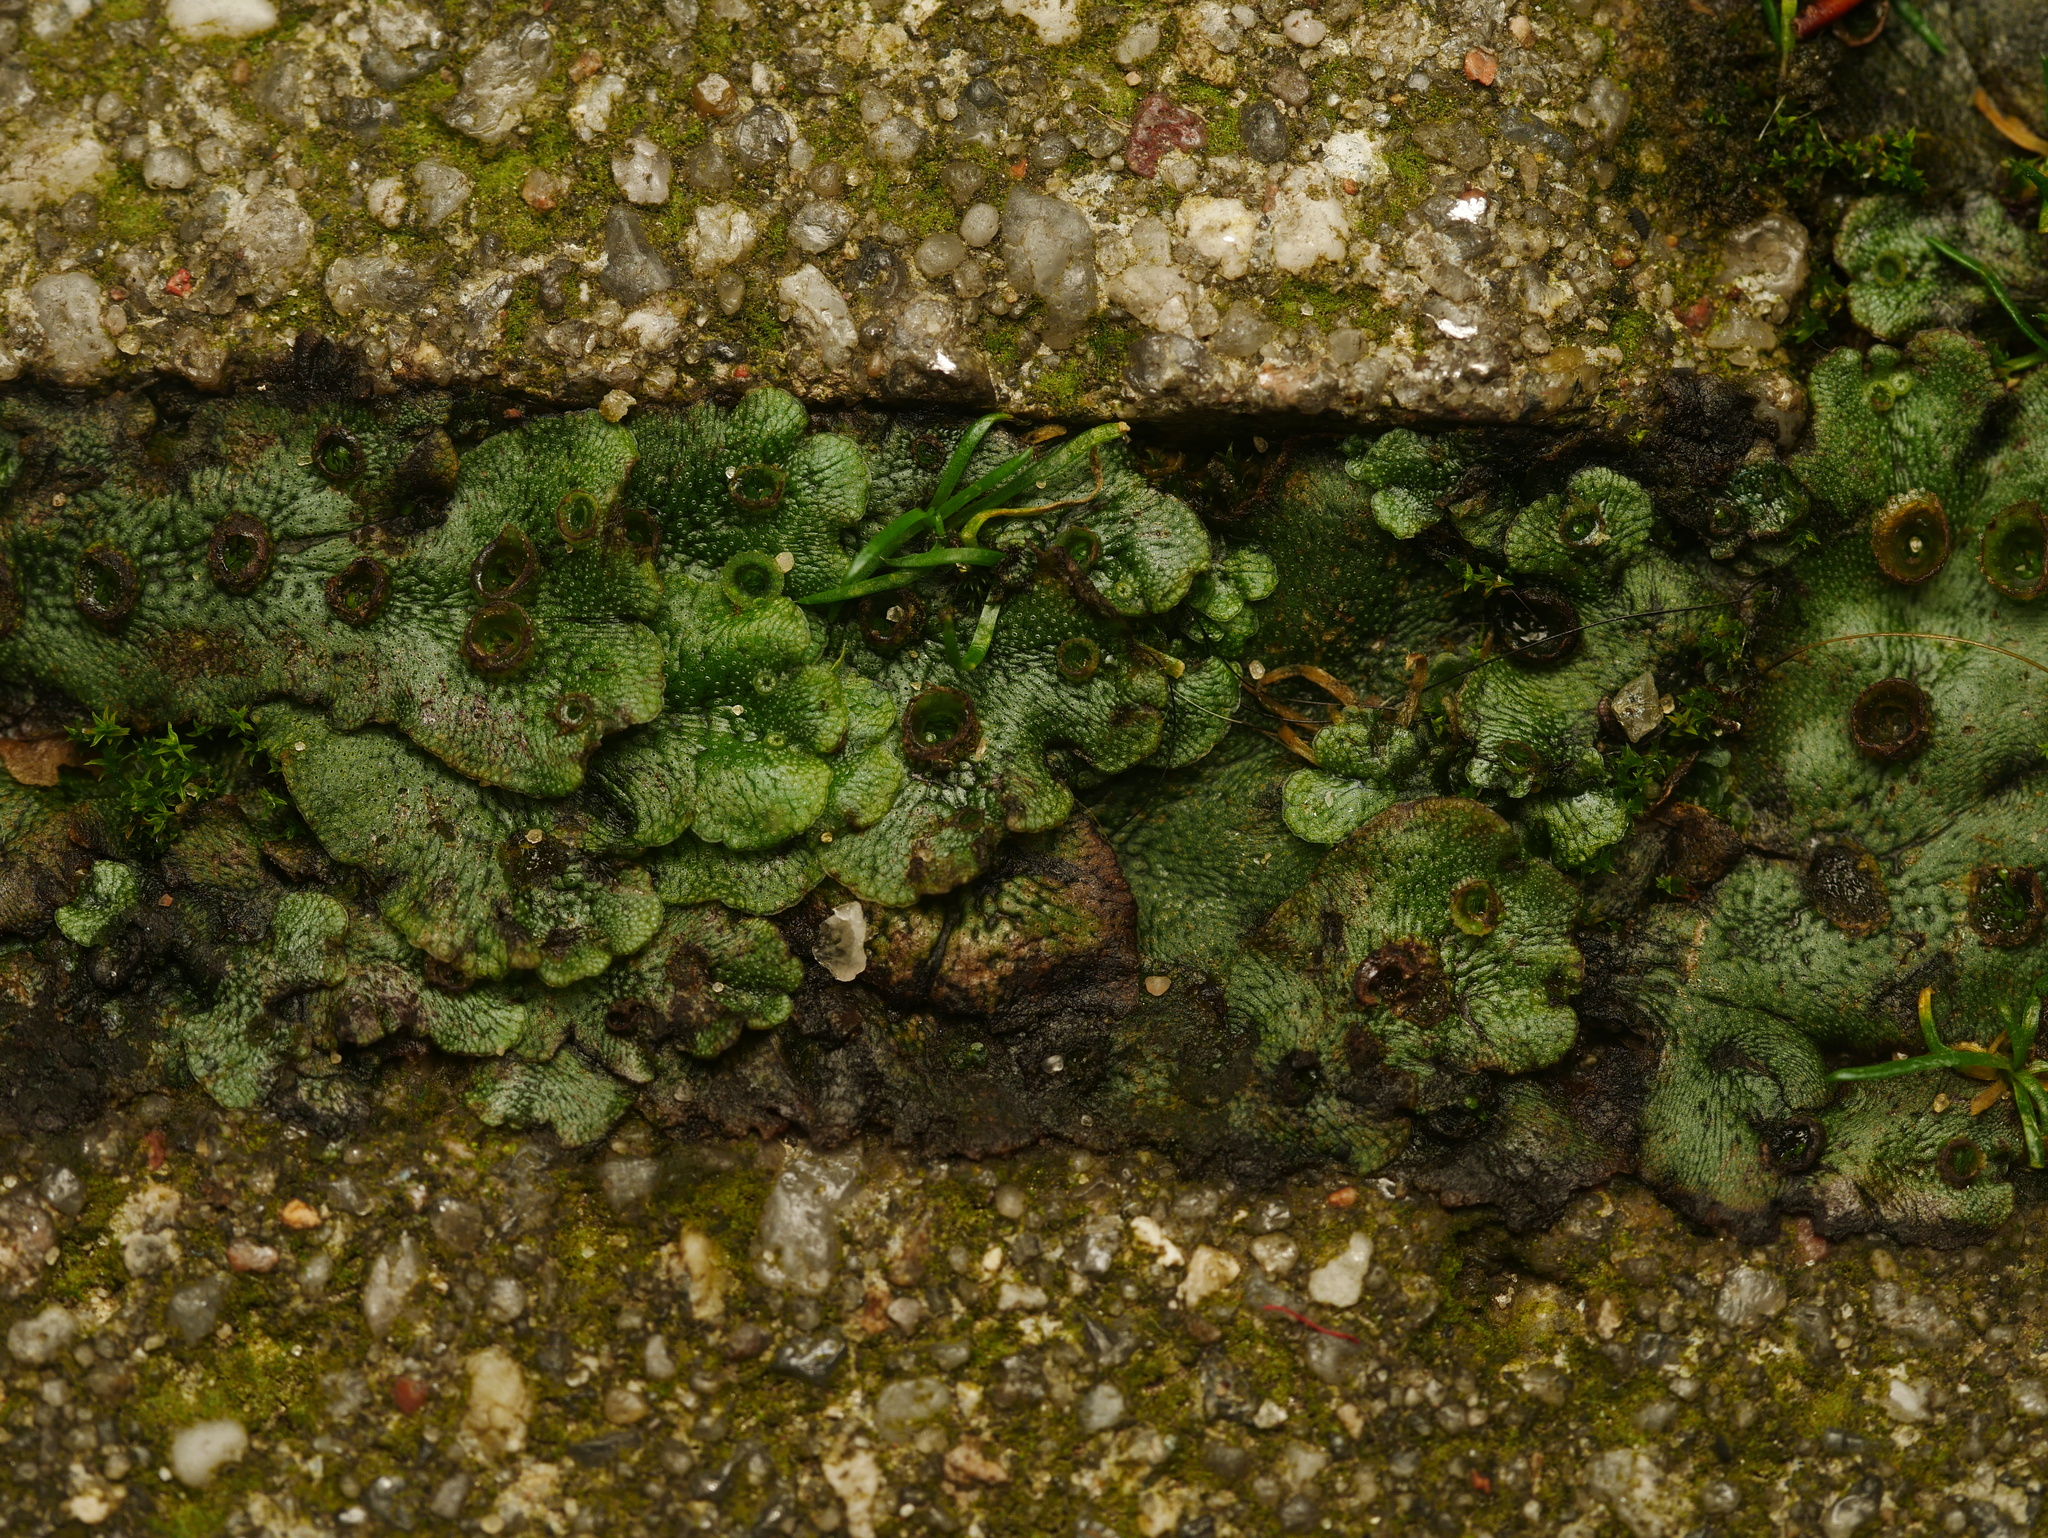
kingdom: Plantae
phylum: Marchantiophyta
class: Marchantiopsida
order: Marchantiales
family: Marchantiaceae
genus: Marchantia
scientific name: Marchantia polymorpha
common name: Common liverwort
